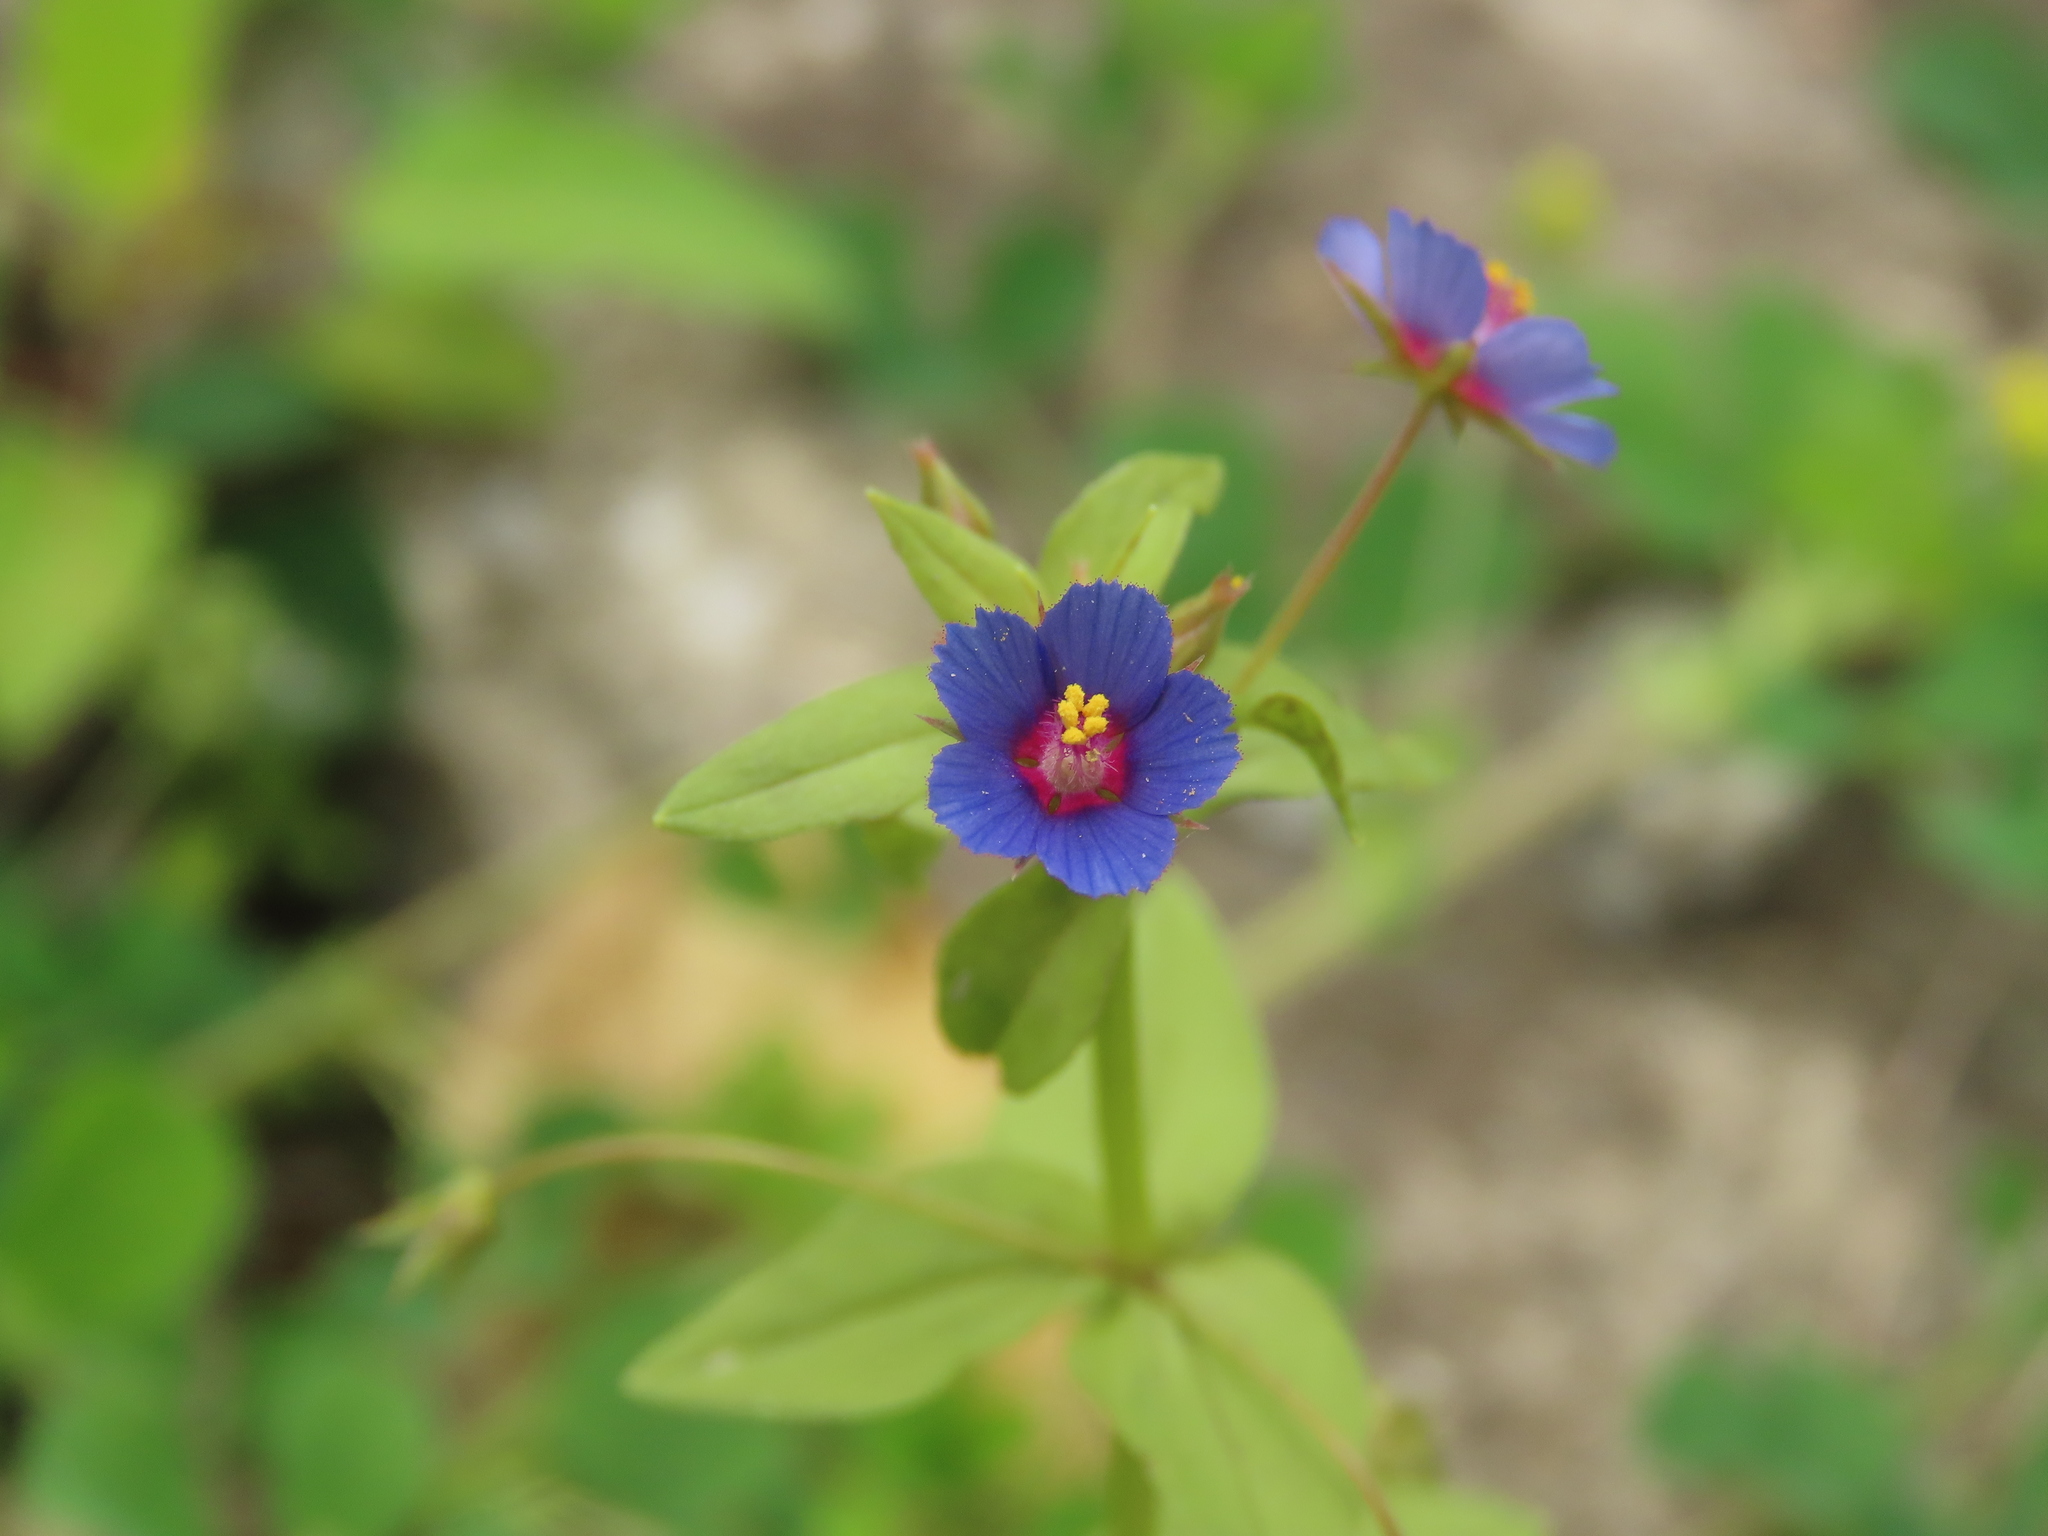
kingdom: Plantae
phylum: Tracheophyta
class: Magnoliopsida
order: Ericales
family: Primulaceae
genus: Lysimachia
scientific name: Lysimachia loeflingii
